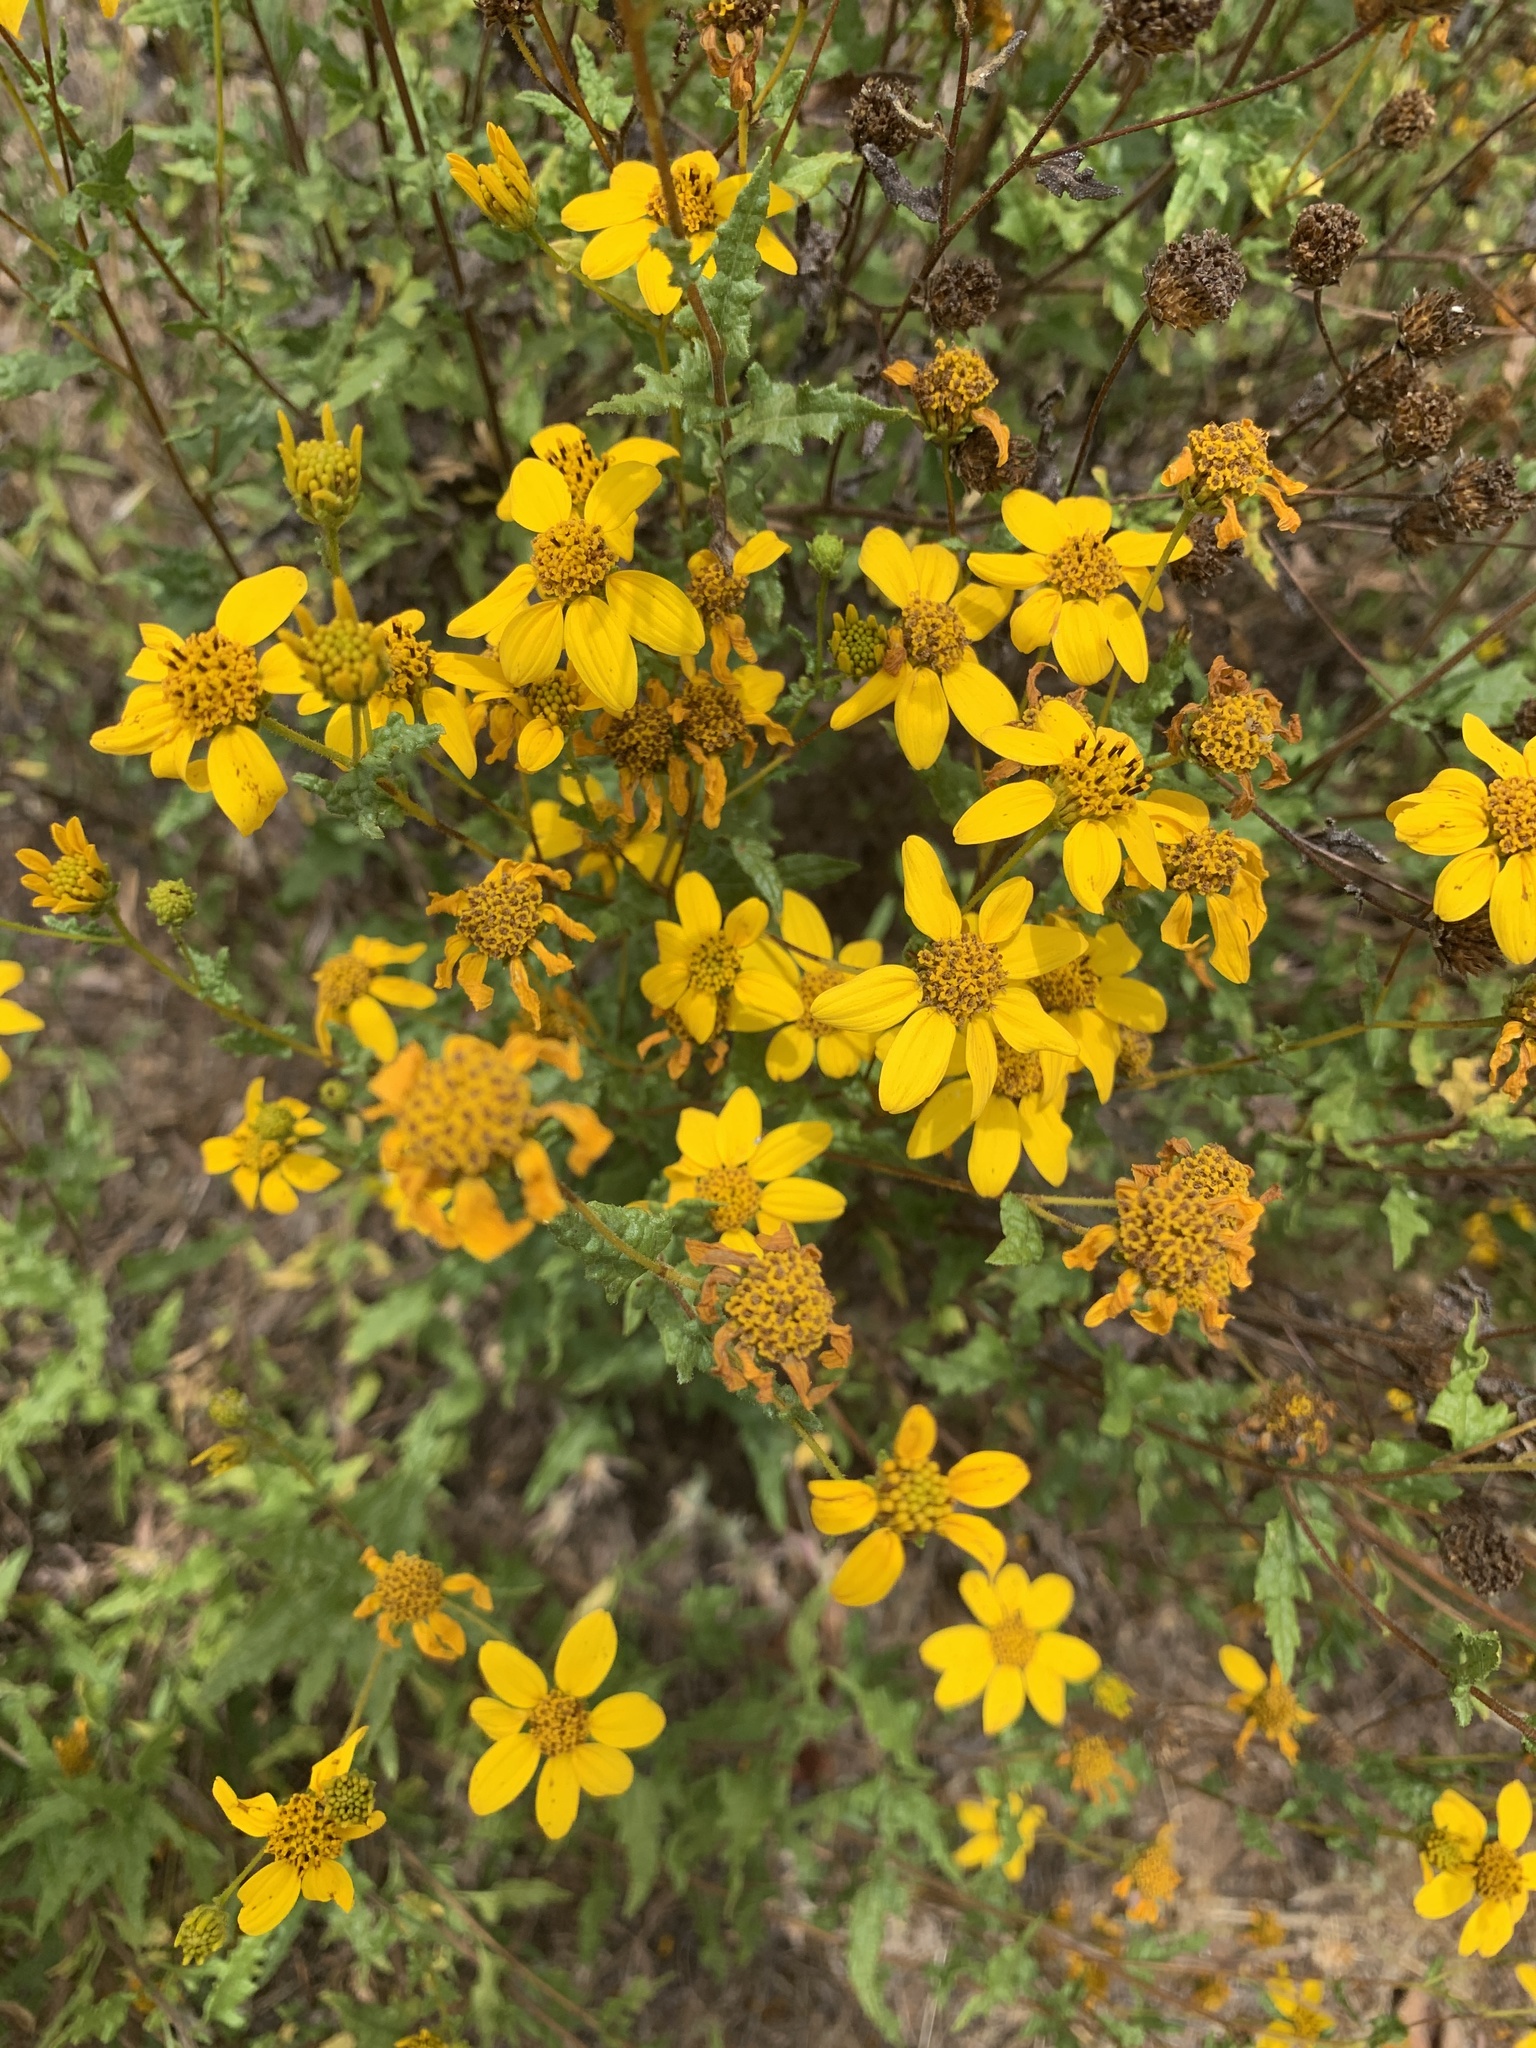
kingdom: Plantae
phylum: Tracheophyta
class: Magnoliopsida
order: Asterales
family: Asteraceae
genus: Bahiopsis
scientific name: Bahiopsis laciniata
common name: San diego county viguiera
